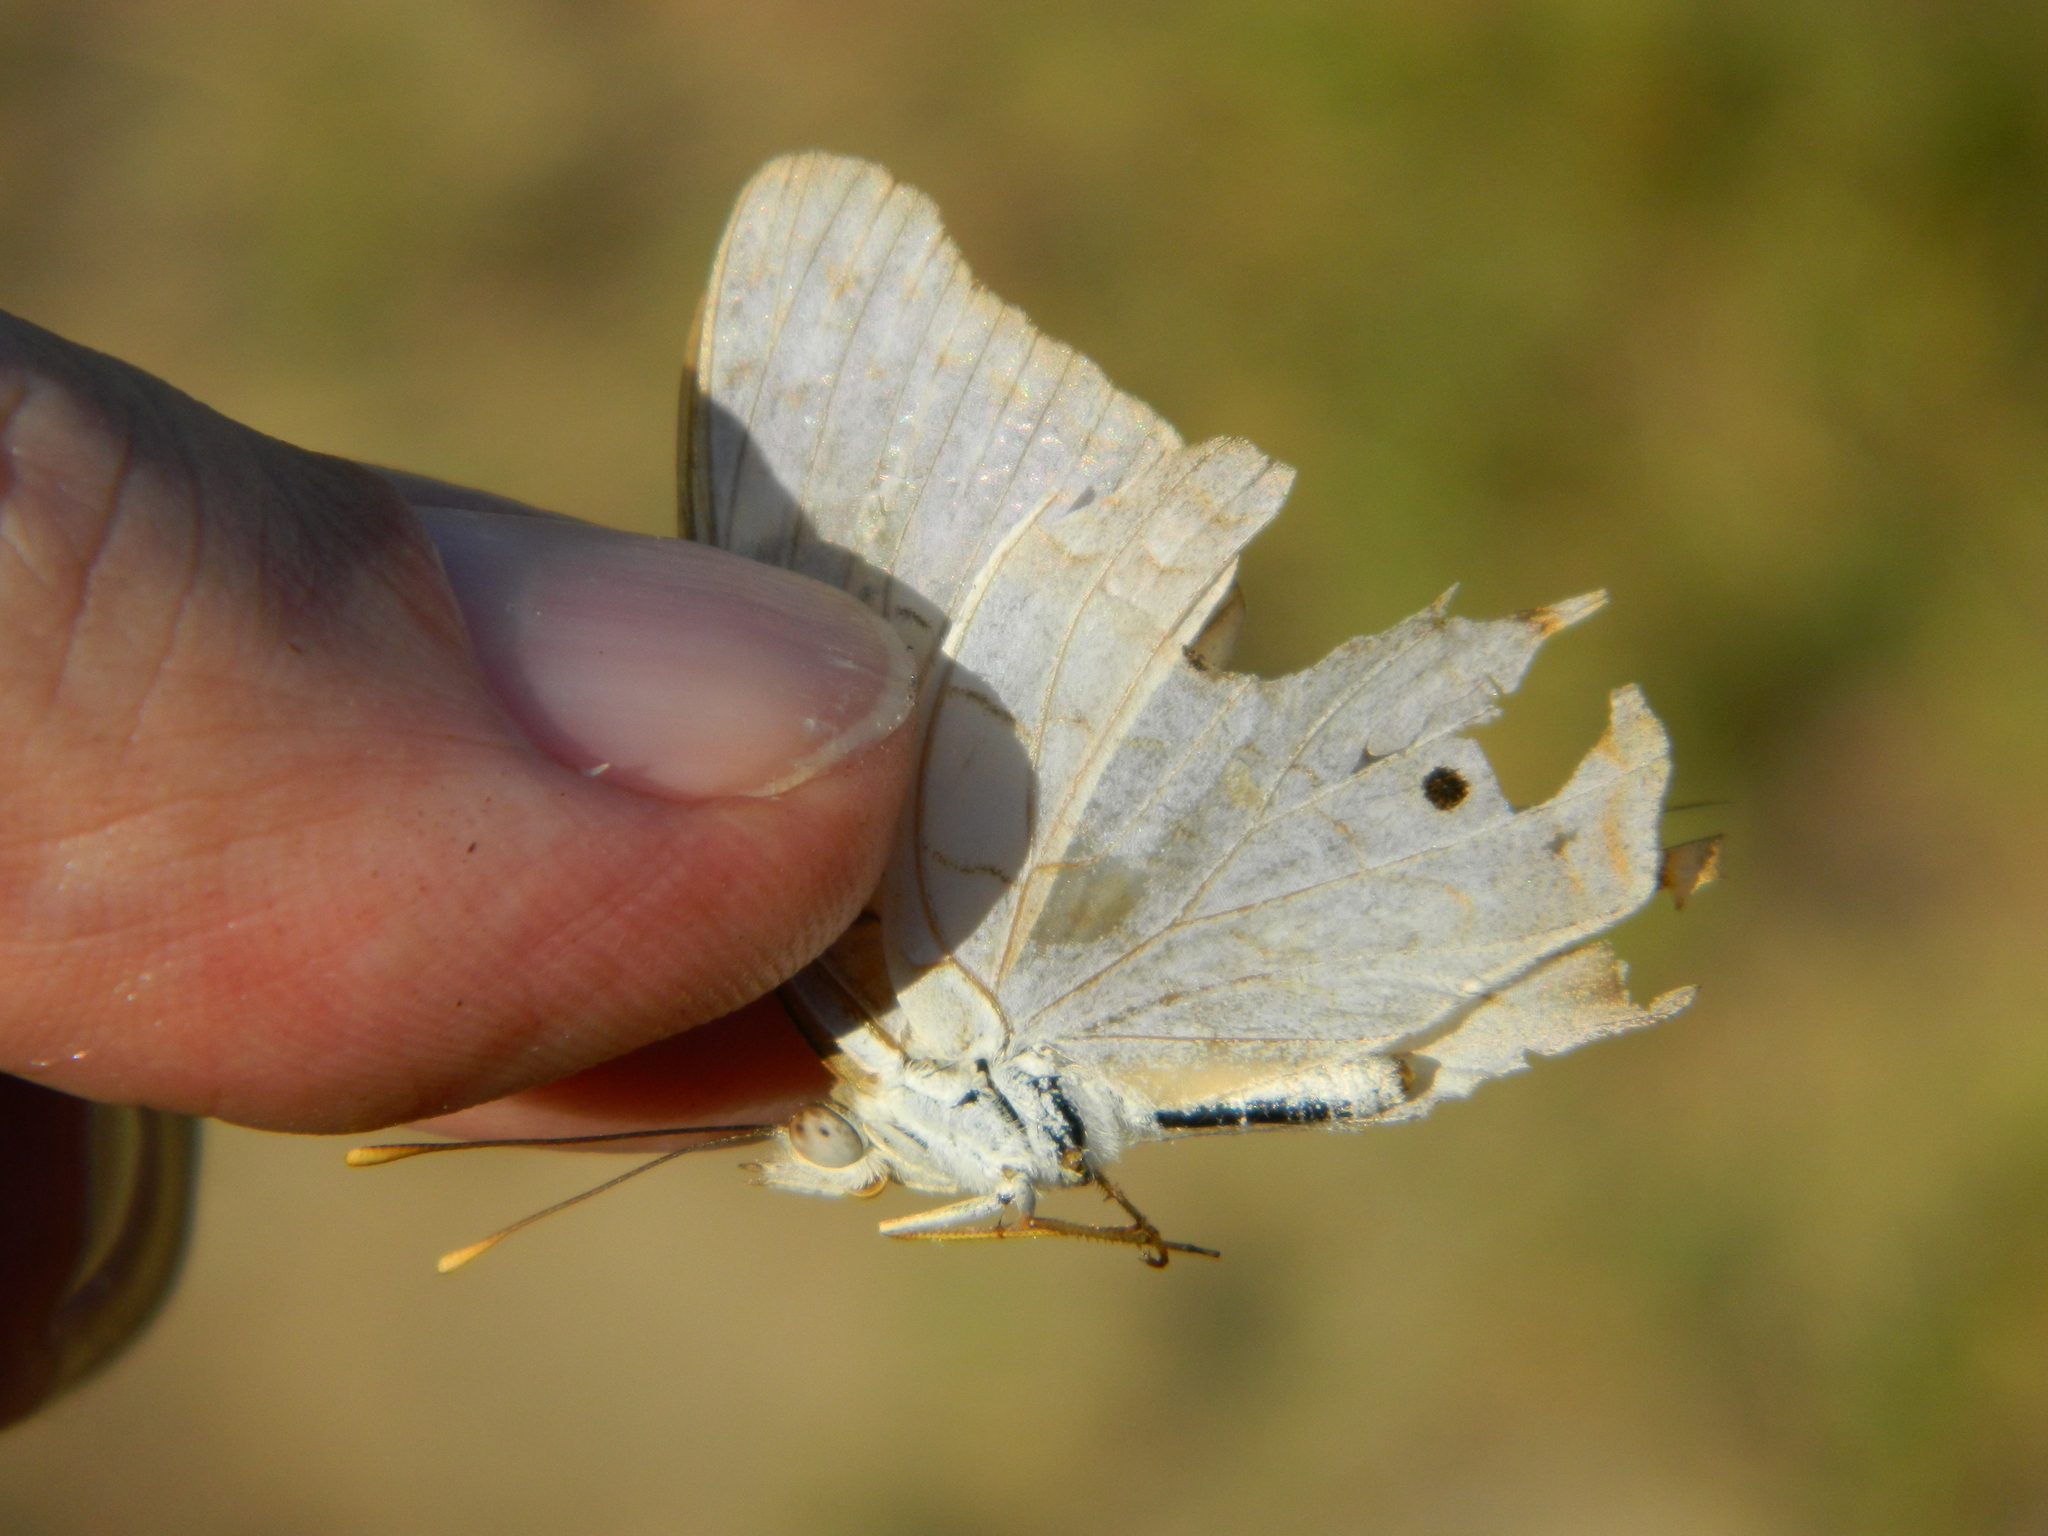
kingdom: Animalia
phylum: Arthropoda
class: Insecta
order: Lepidoptera
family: Nymphalidae
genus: Anartia
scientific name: Anartia jatrophae
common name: White peacock
